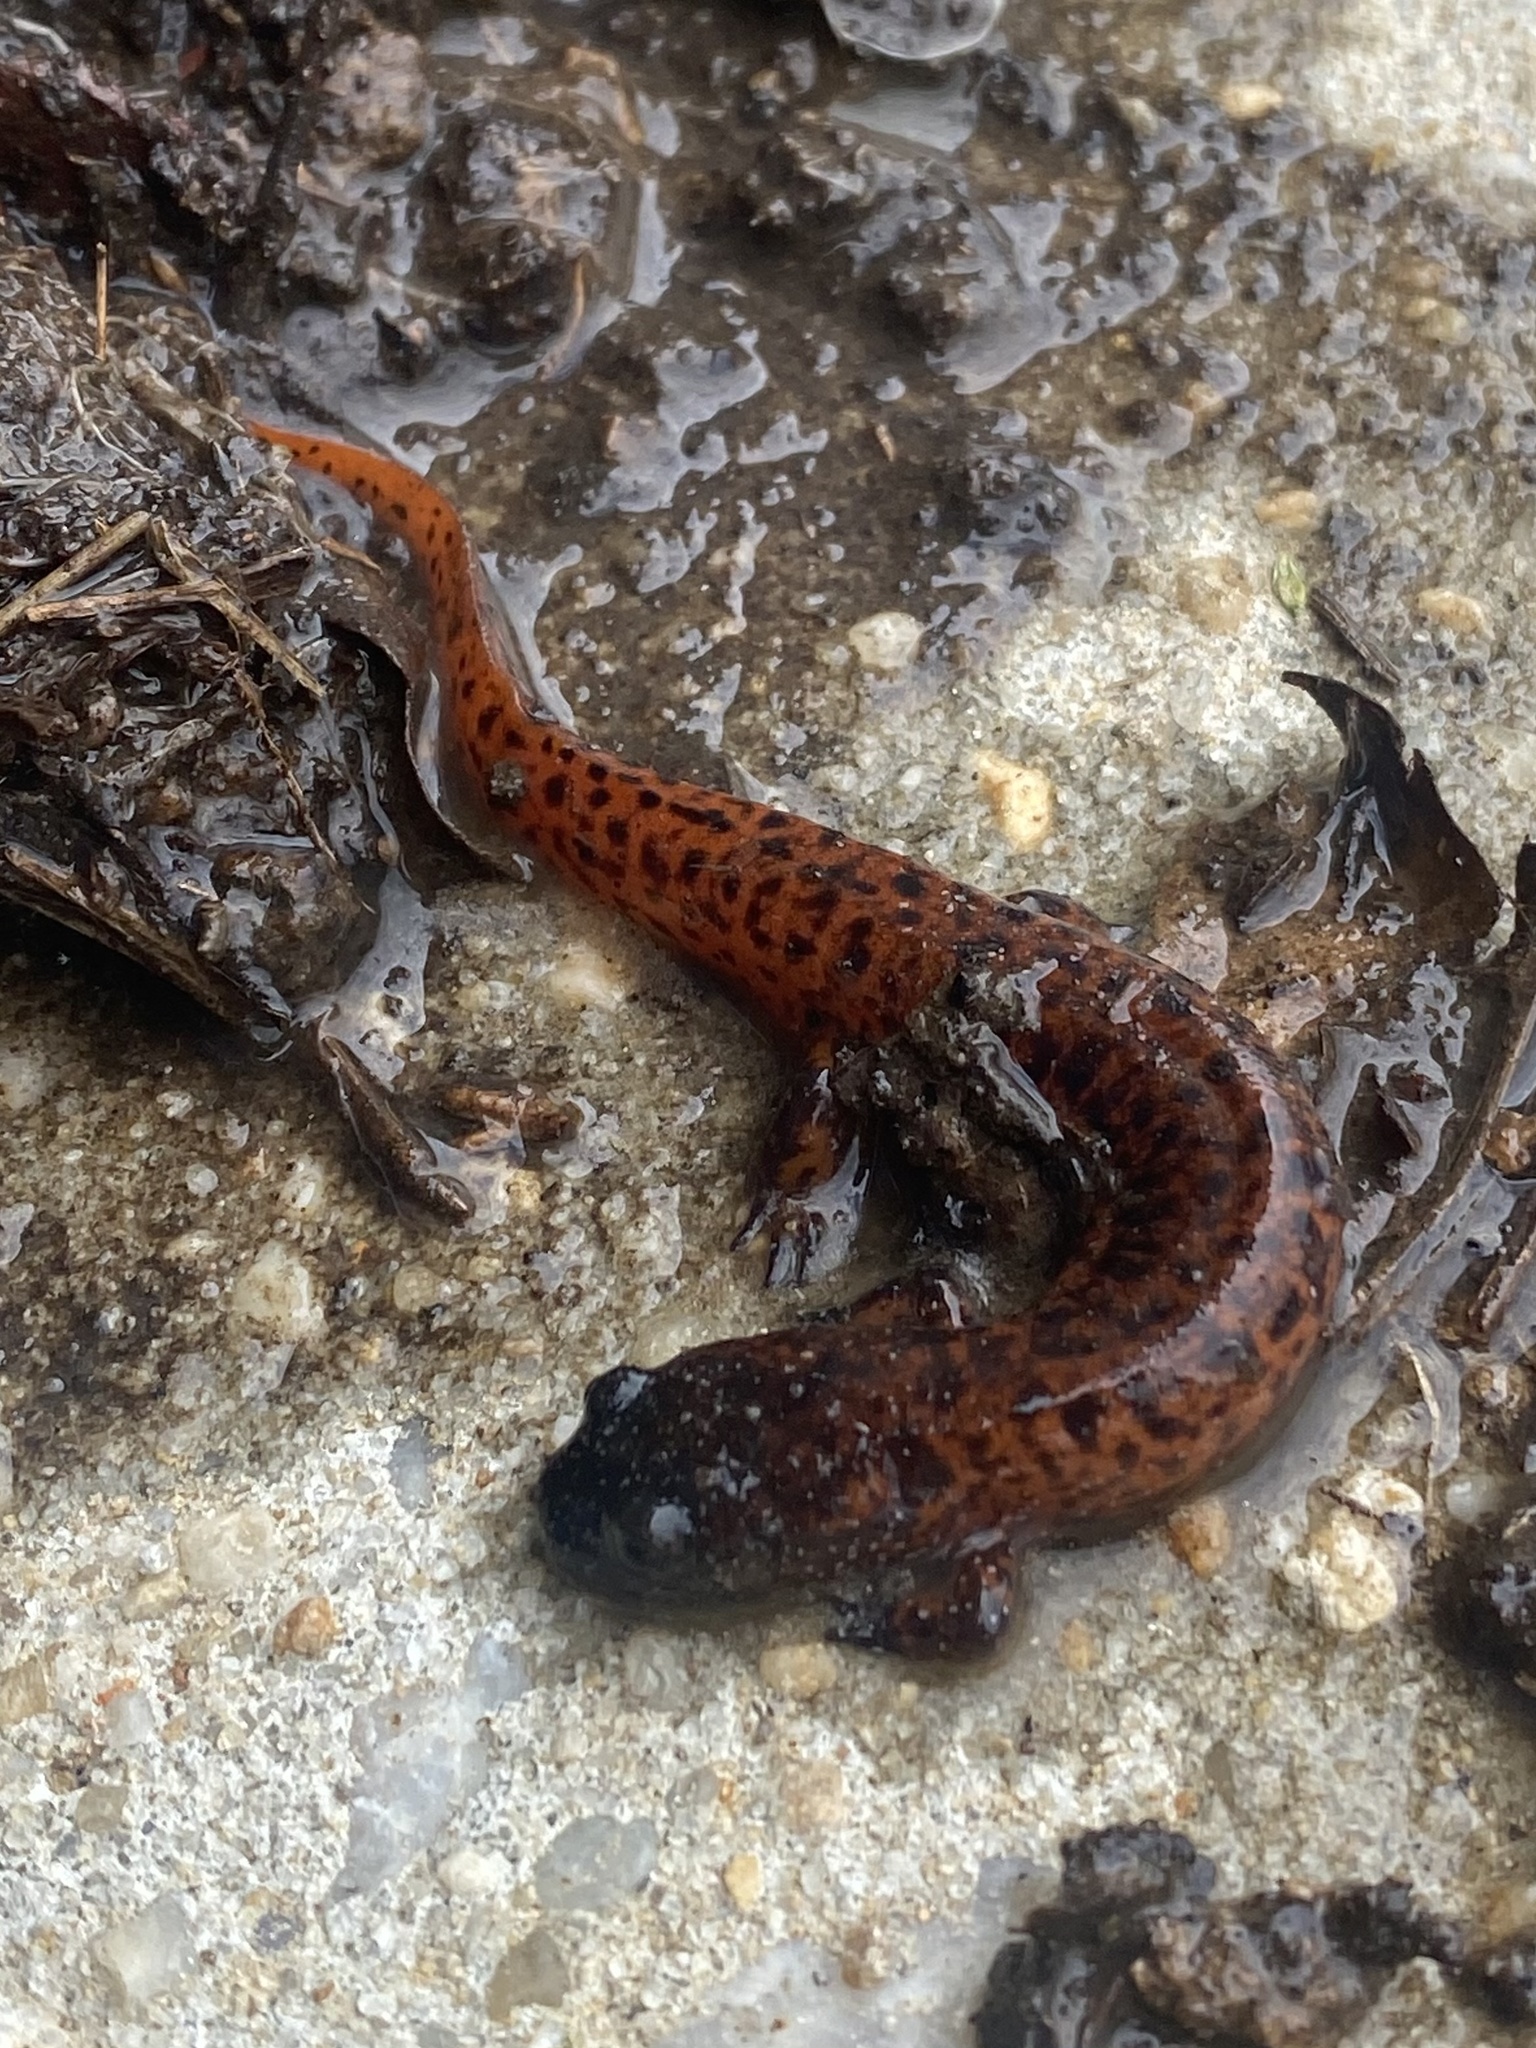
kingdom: Animalia
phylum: Chordata
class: Amphibia
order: Caudata
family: Plethodontidae
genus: Pseudotriton
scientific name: Pseudotriton ruber
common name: Red salamander
